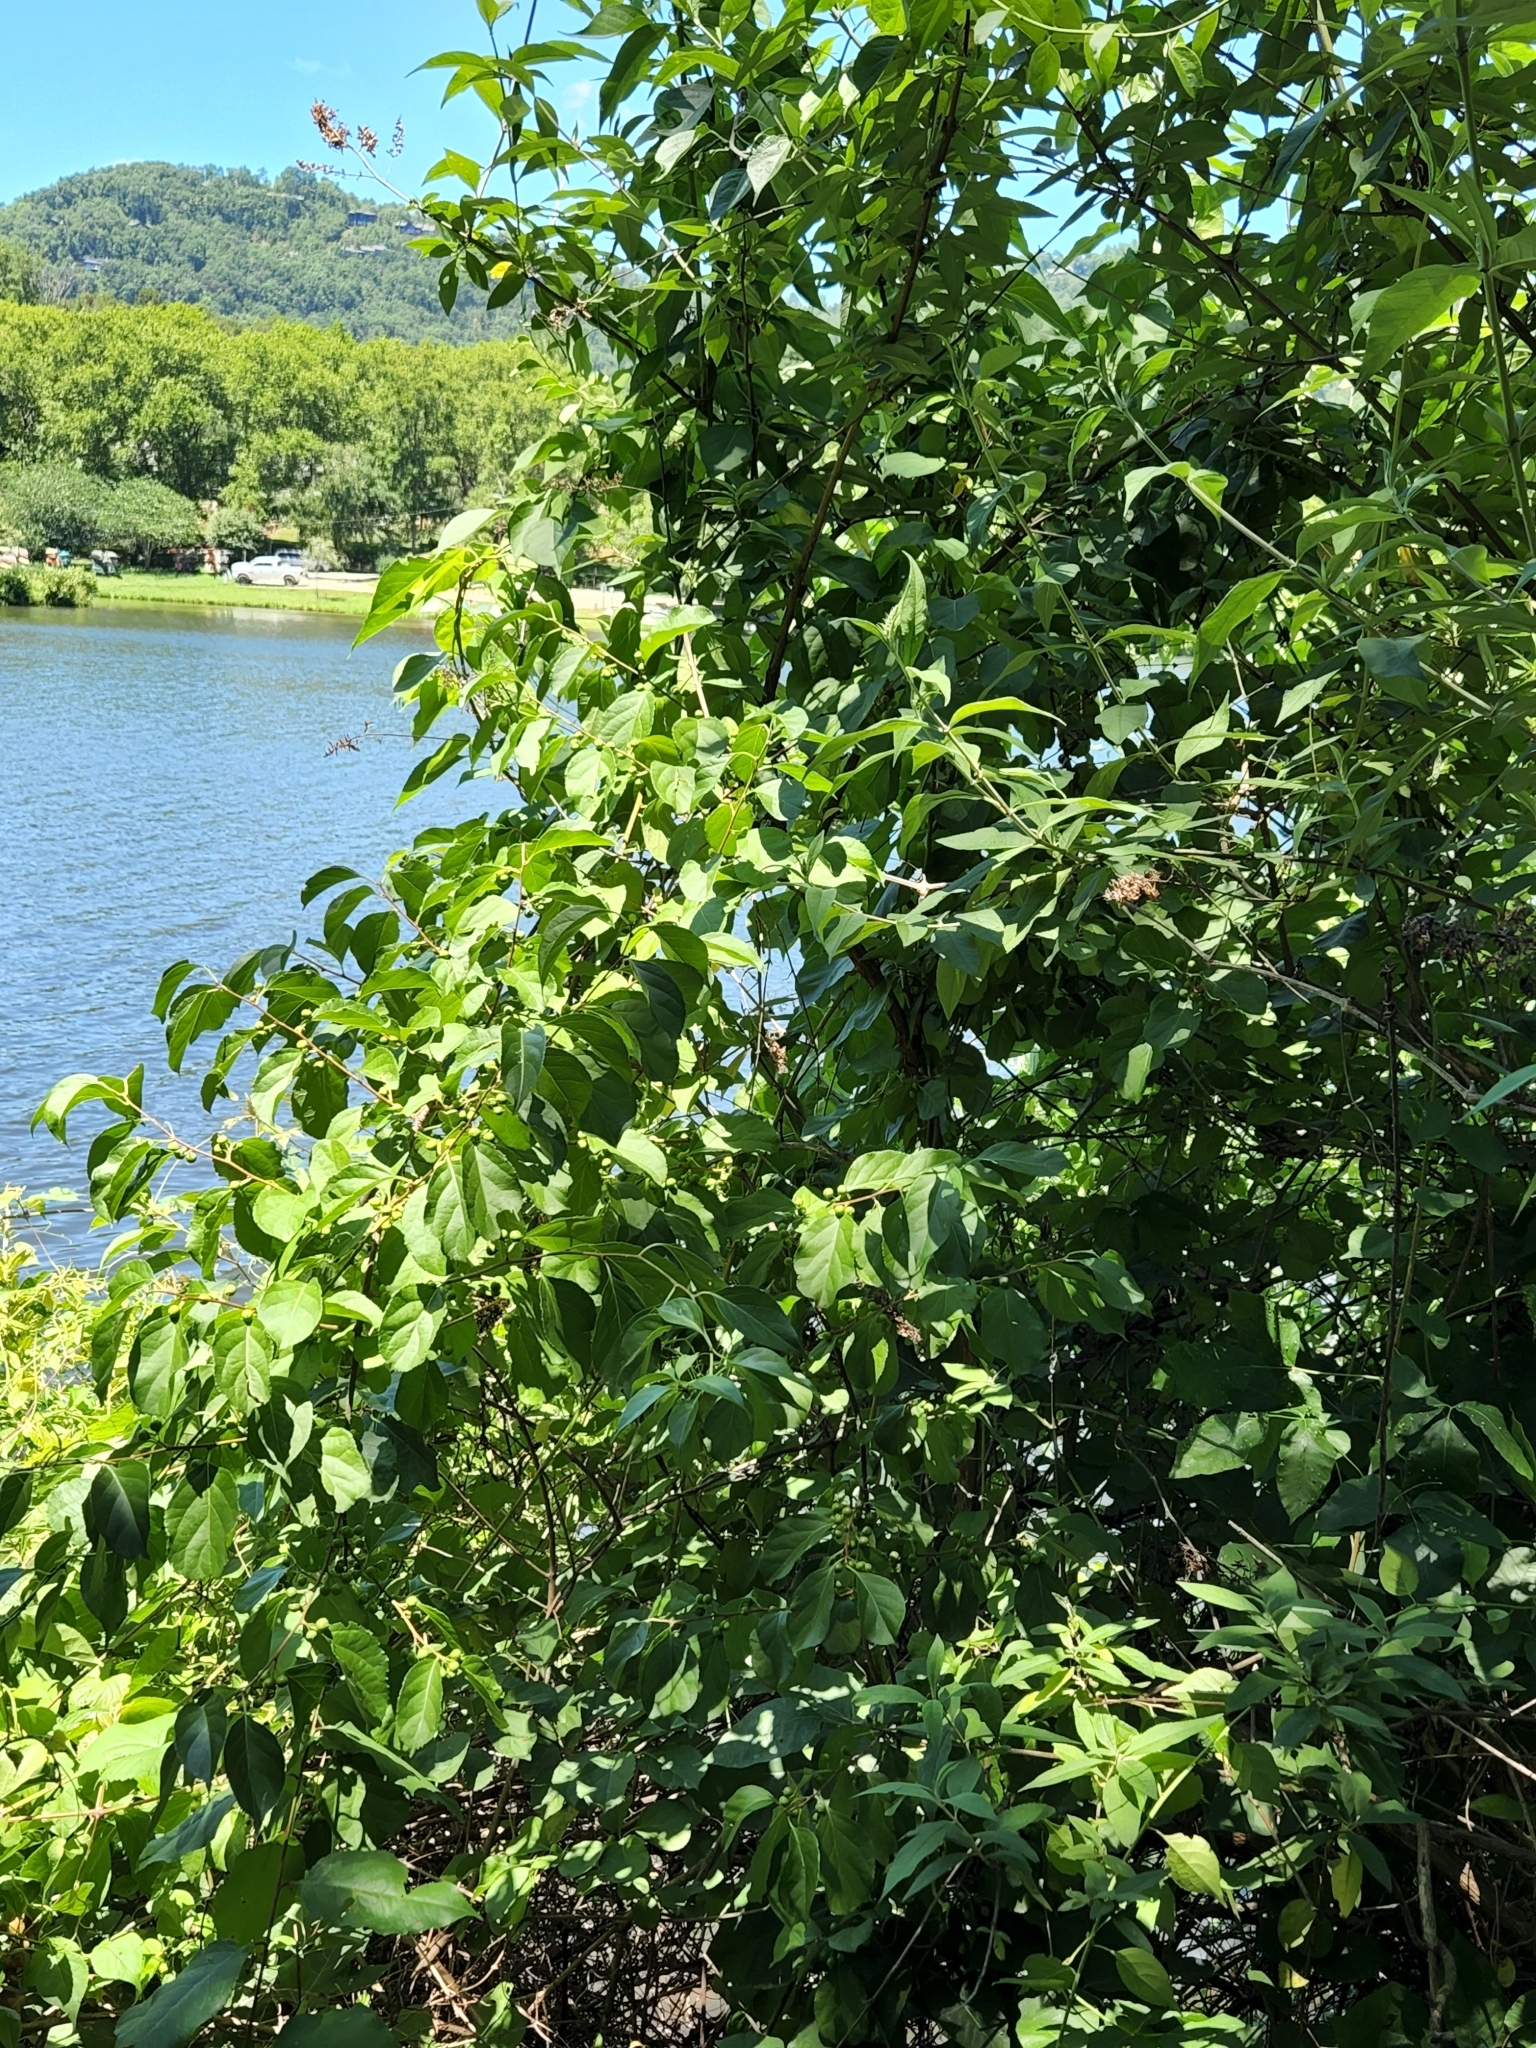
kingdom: Plantae
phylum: Tracheophyta
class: Magnoliopsida
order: Celastrales
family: Celastraceae
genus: Celastrus
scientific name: Celastrus orbiculatus
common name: Oriental bittersweet
